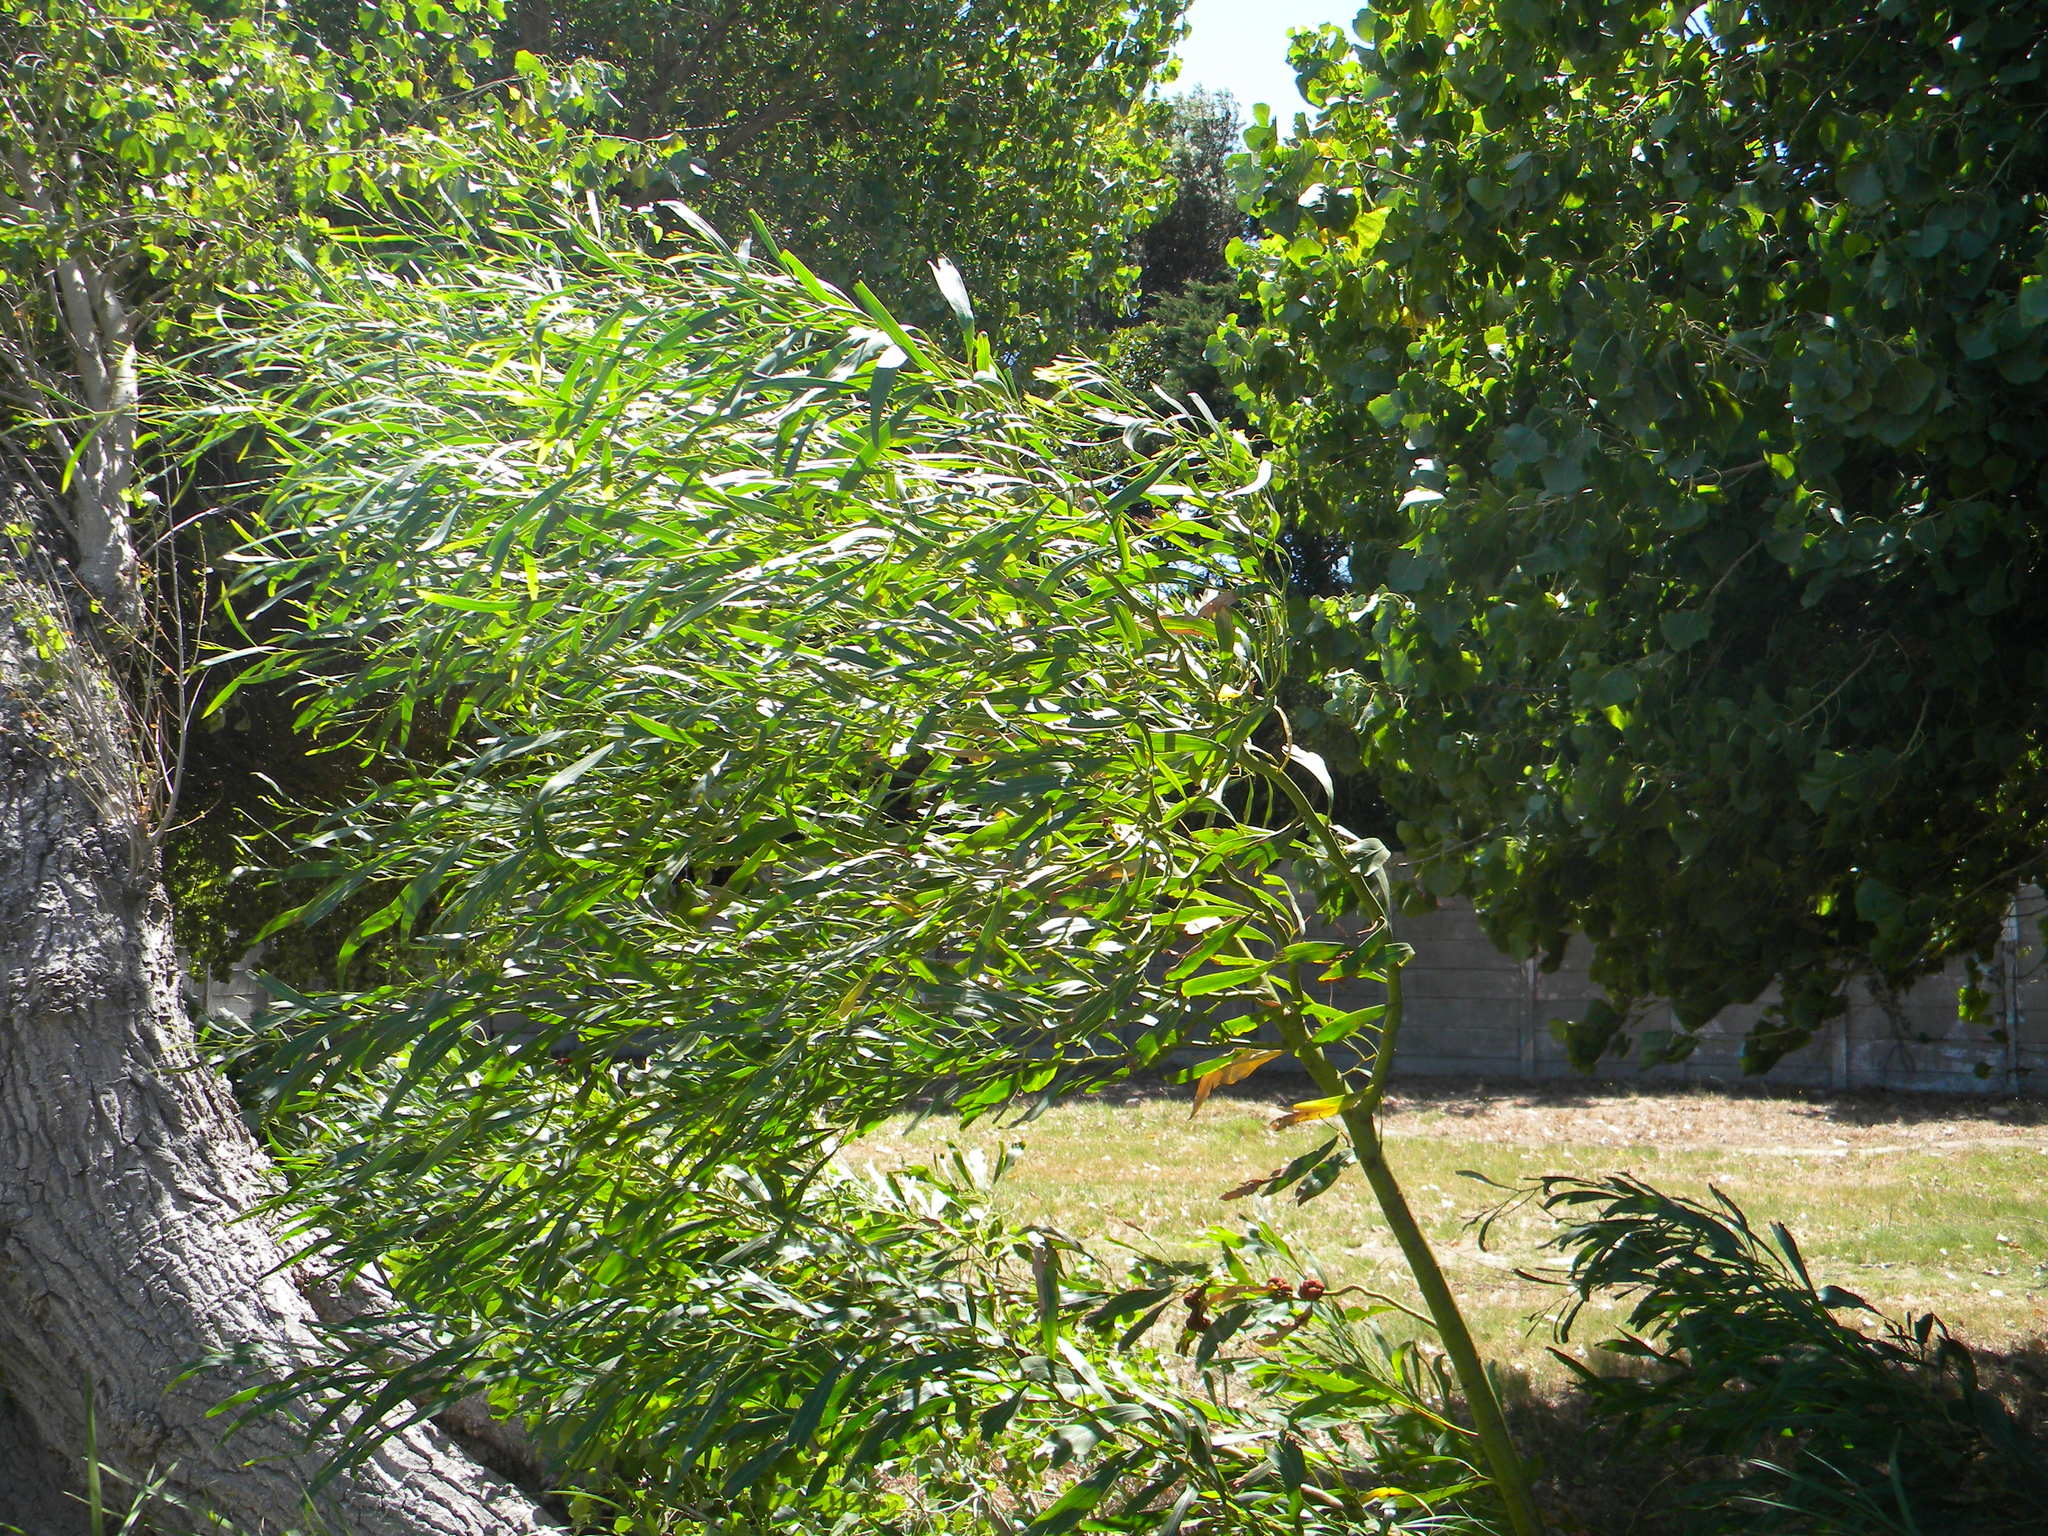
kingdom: Plantae
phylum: Tracheophyta
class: Magnoliopsida
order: Fabales
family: Fabaceae
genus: Acacia
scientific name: Acacia saligna
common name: Orange wattle
